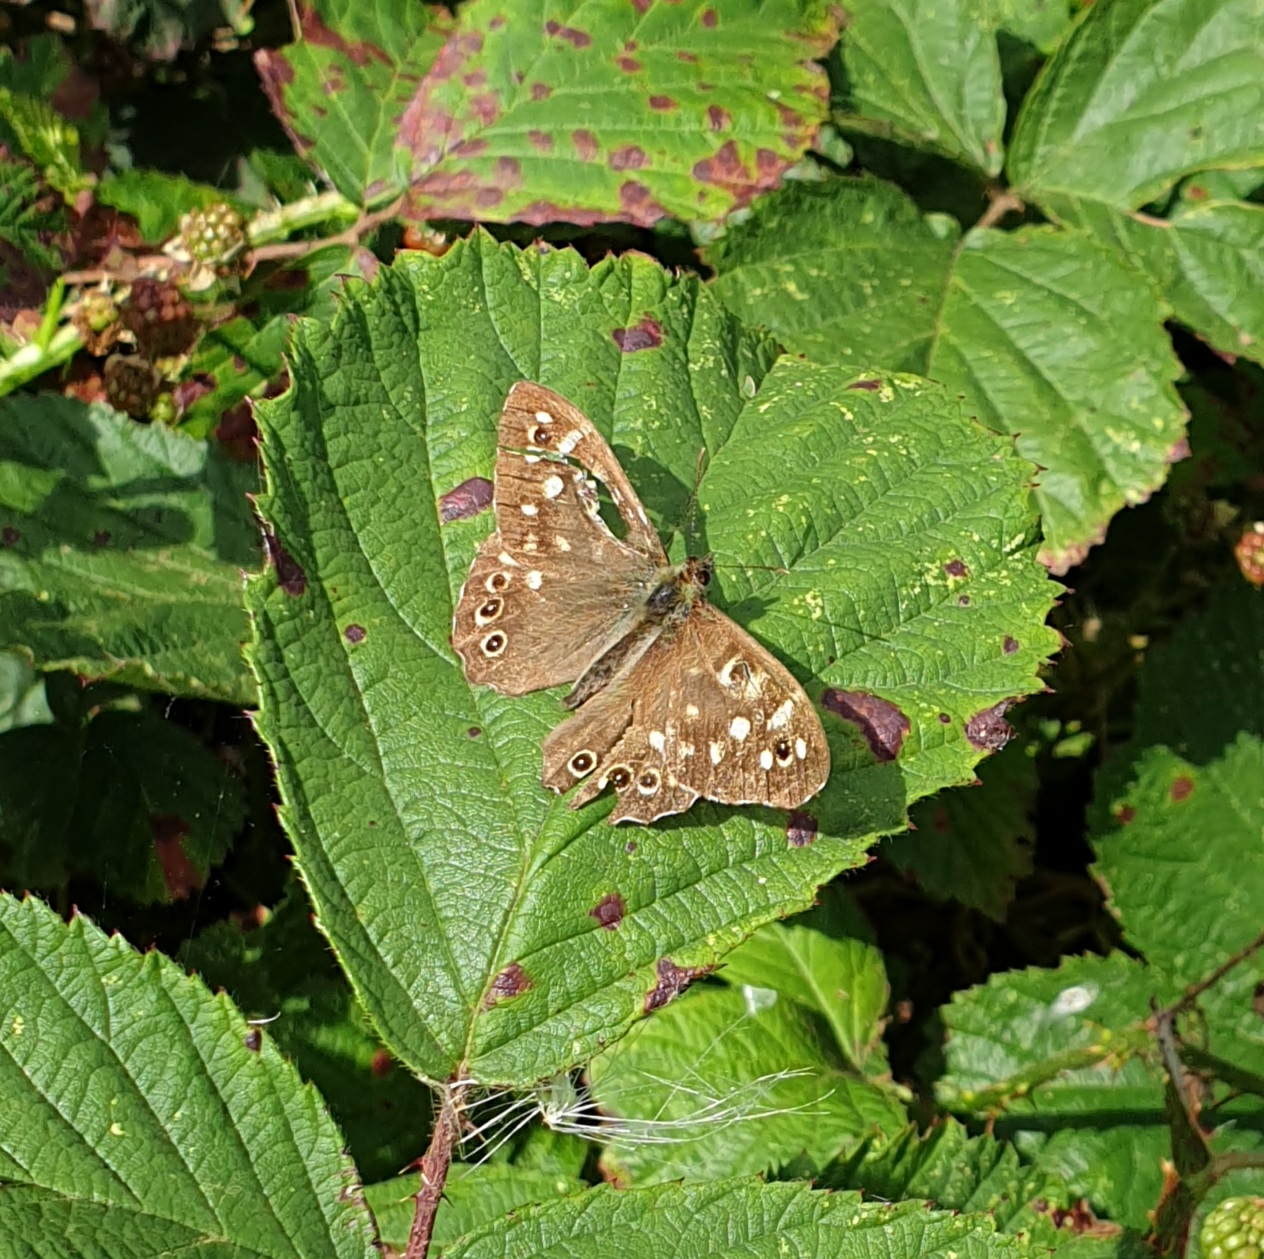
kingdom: Animalia
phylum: Arthropoda
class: Insecta
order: Lepidoptera
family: Nymphalidae
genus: Pararge
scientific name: Pararge aegeria
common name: Speckled wood
